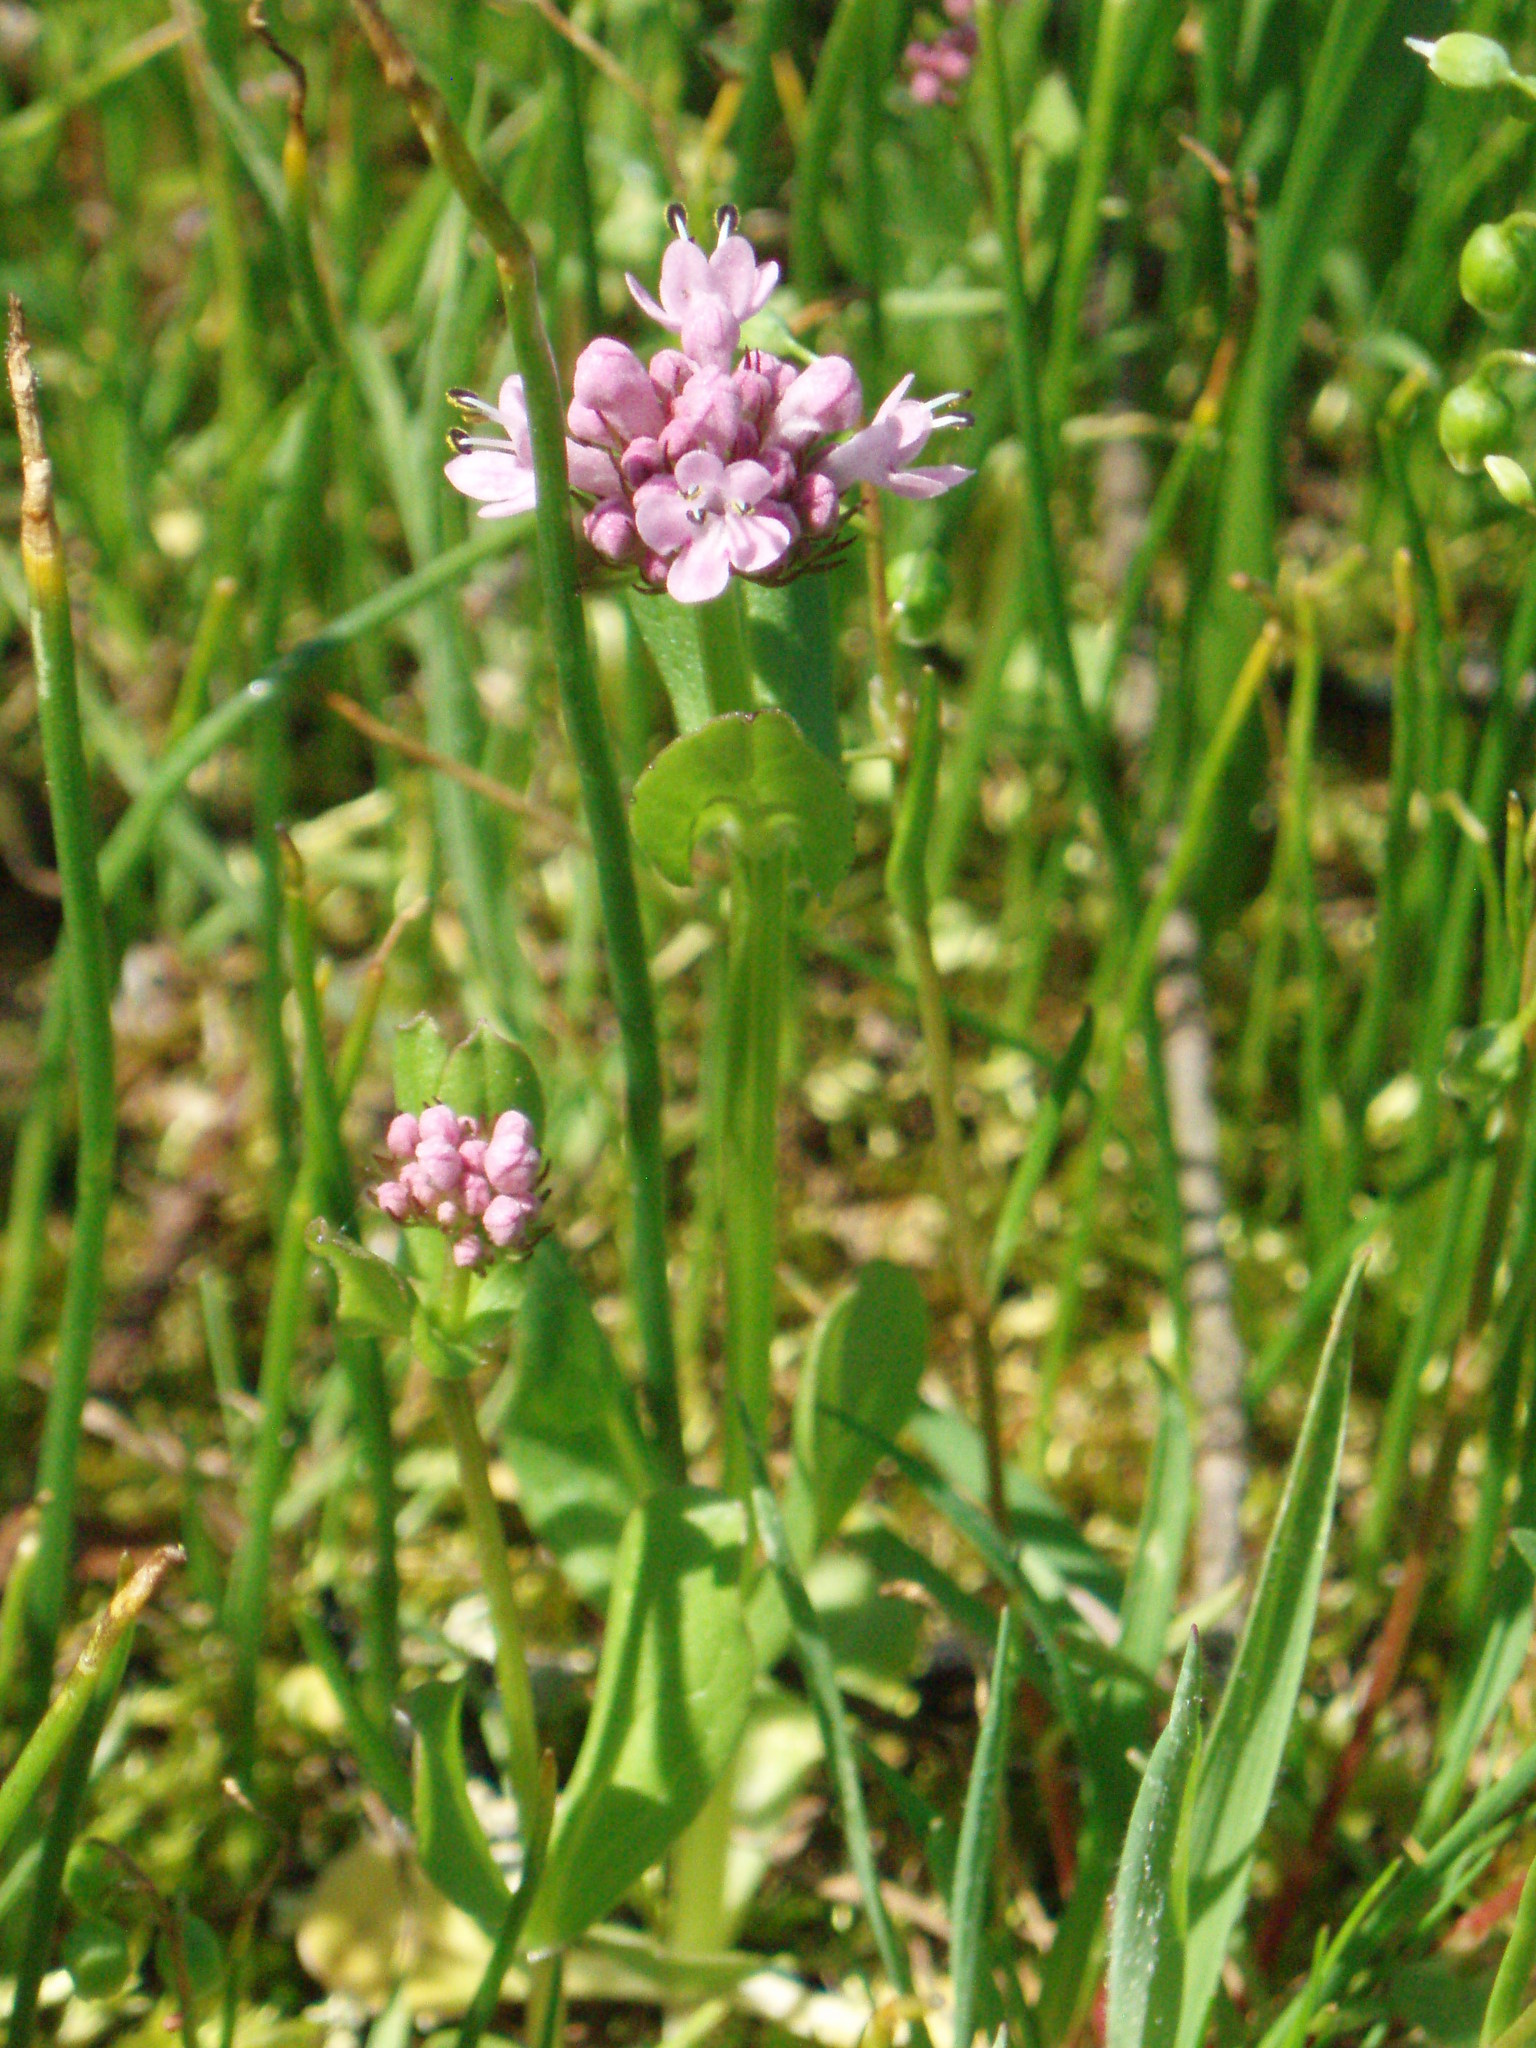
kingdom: Plantae
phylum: Tracheophyta
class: Magnoliopsida
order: Dipsacales
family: Caprifoliaceae
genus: Plectritis
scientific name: Plectritis congesta
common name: Pink plectritis
